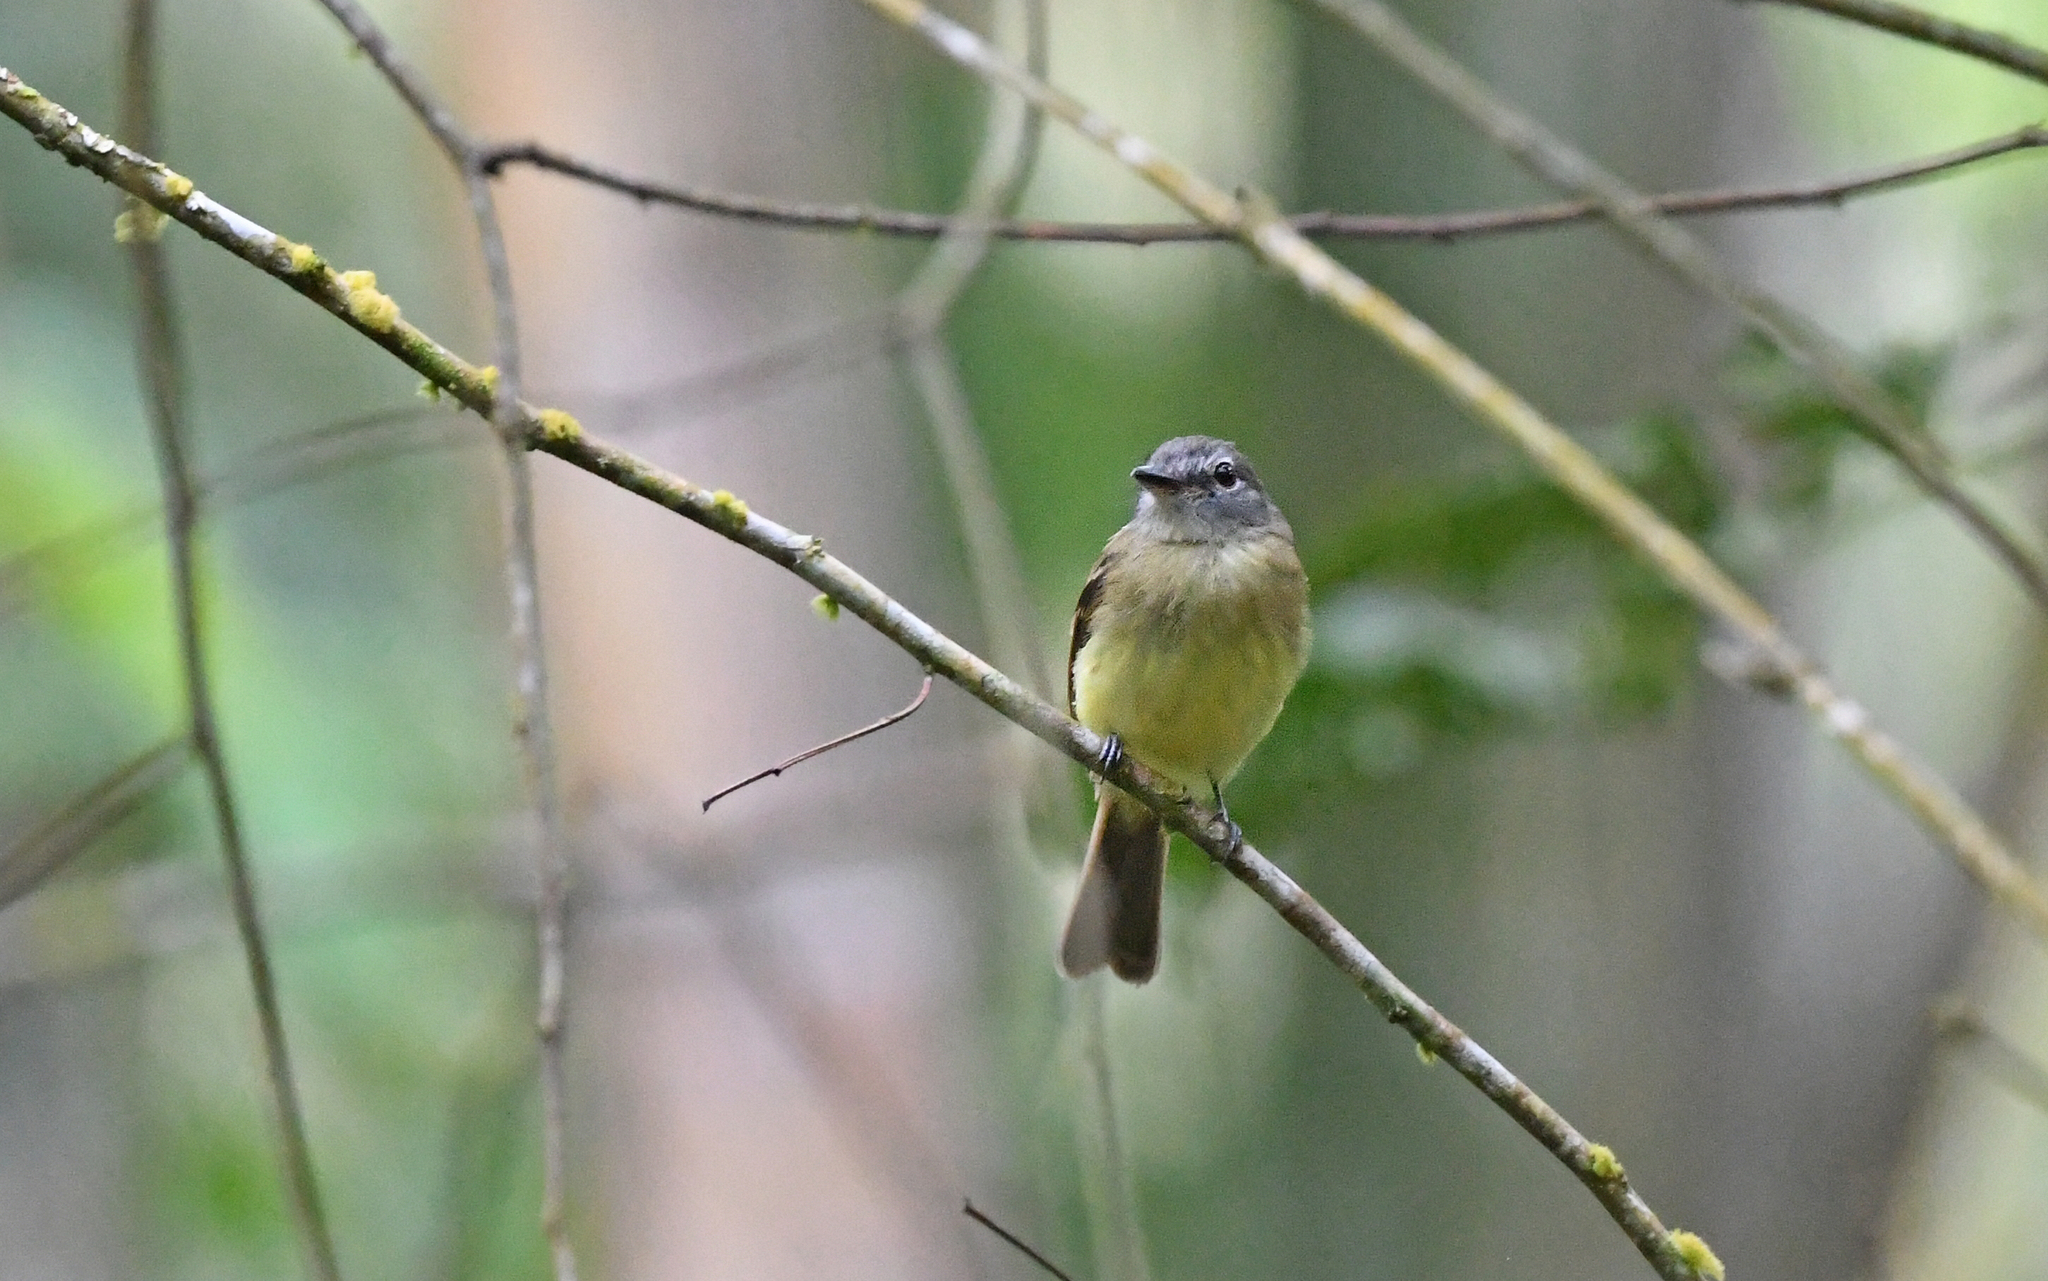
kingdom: Animalia
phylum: Chordata
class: Aves
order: Passeriformes
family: Tyrannidae
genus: Aphanotriccus
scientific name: Aphanotriccus audax
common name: Black-billed flycatcher
